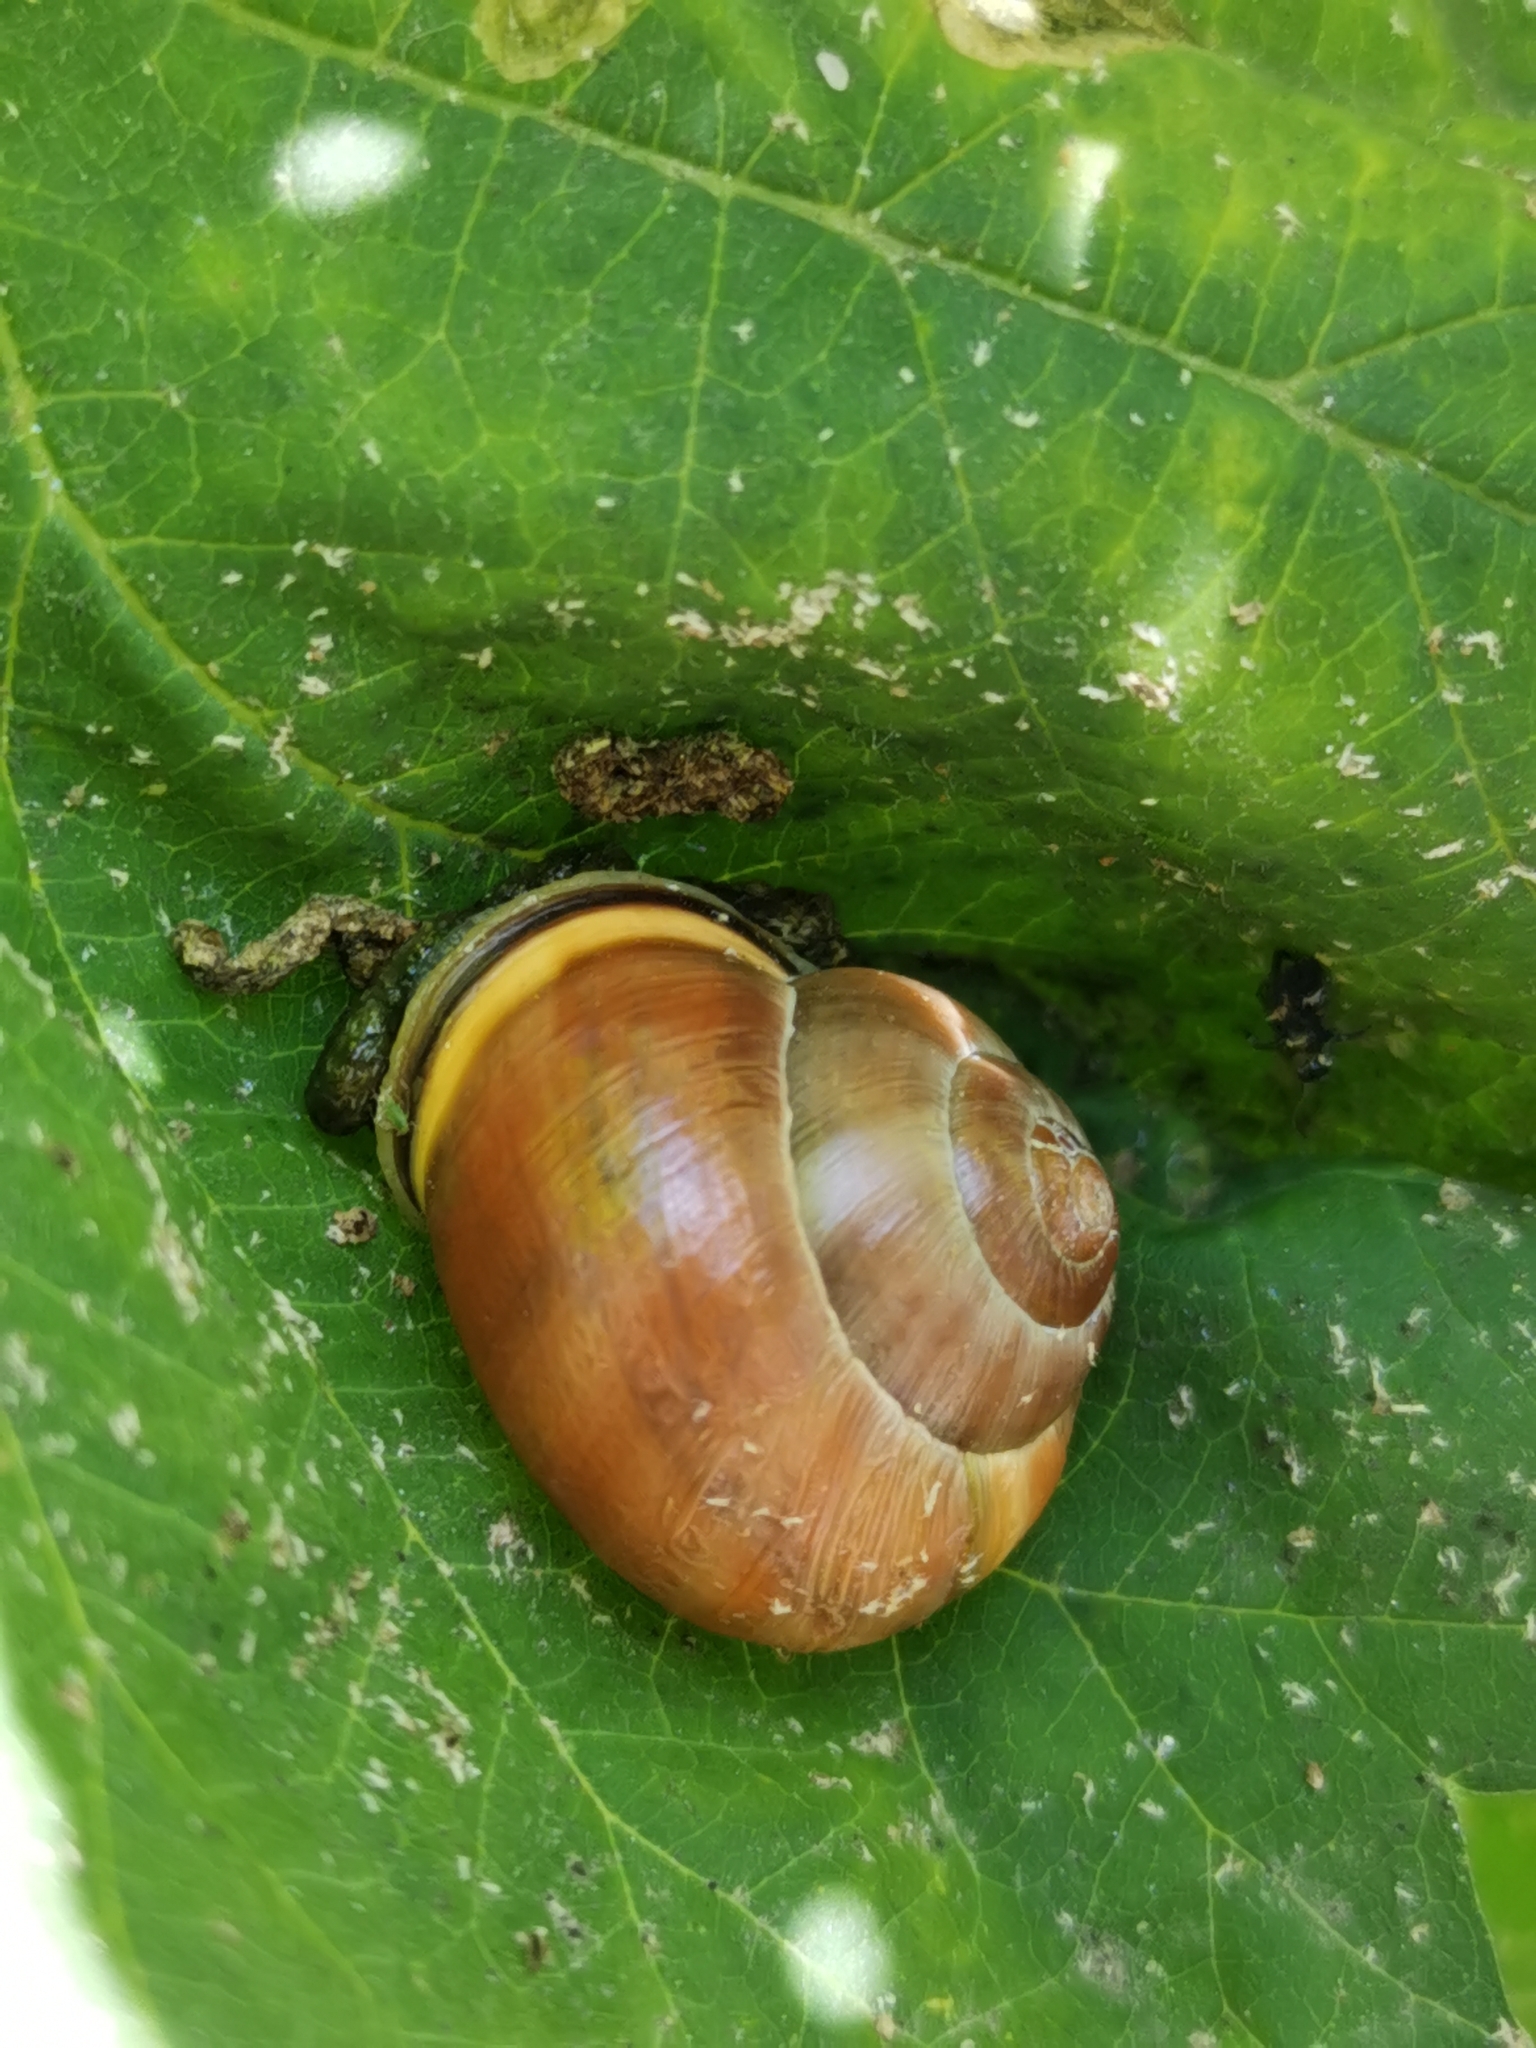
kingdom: Animalia
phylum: Mollusca
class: Gastropoda
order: Stylommatophora
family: Helicidae
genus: Cepaea
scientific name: Cepaea nemoralis
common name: Grovesnail
